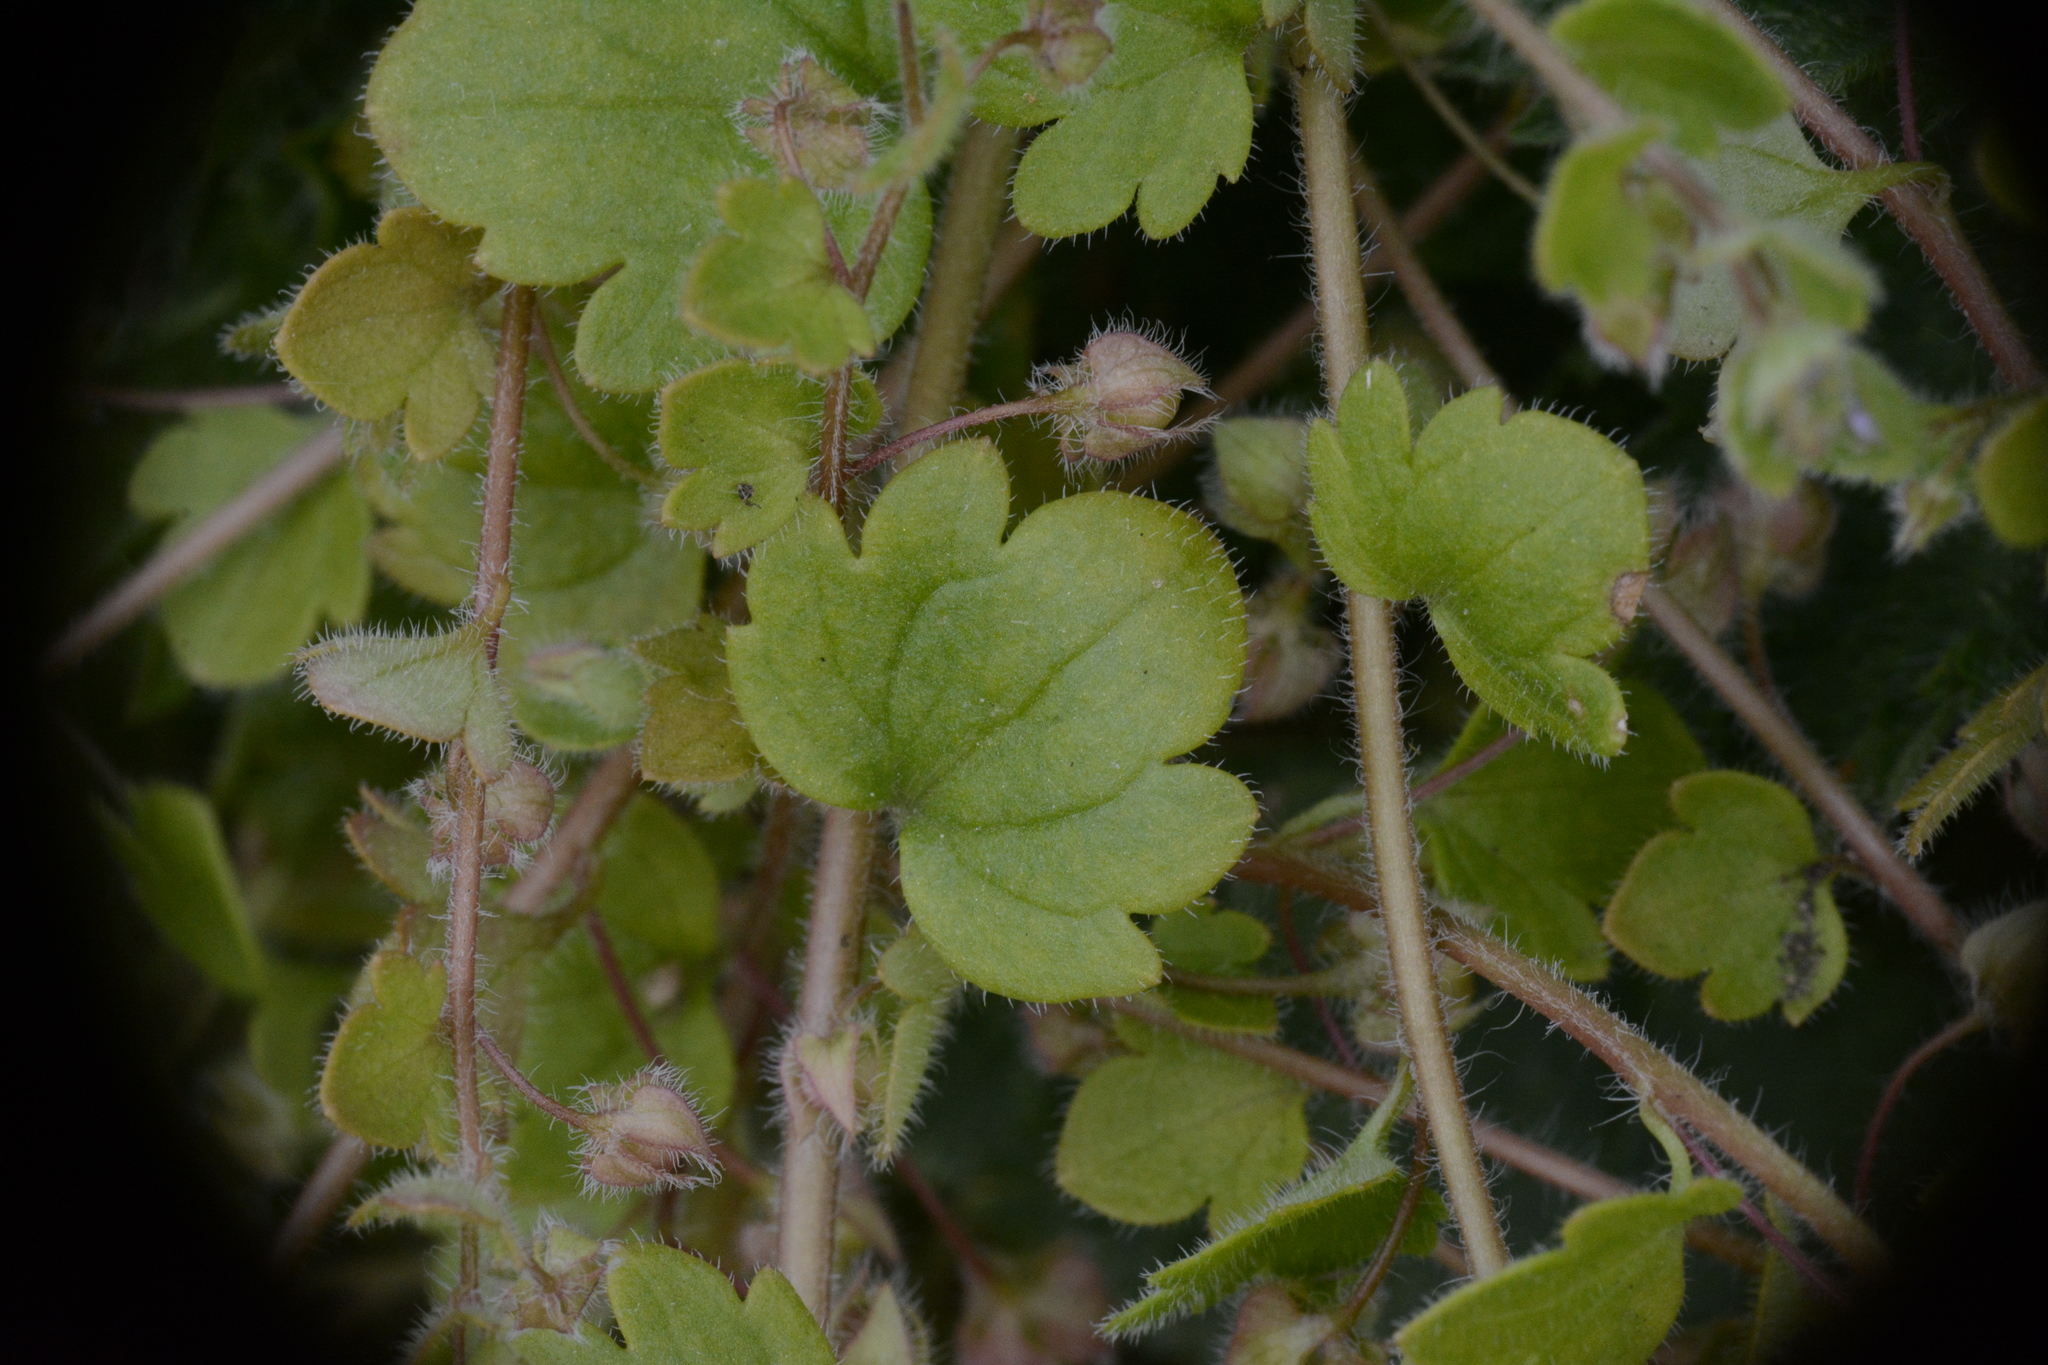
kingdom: Plantae
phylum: Tracheophyta
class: Magnoliopsida
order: Lamiales
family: Plantaginaceae
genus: Veronica
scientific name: Veronica sublobata
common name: False ivy-leaved speedwell
